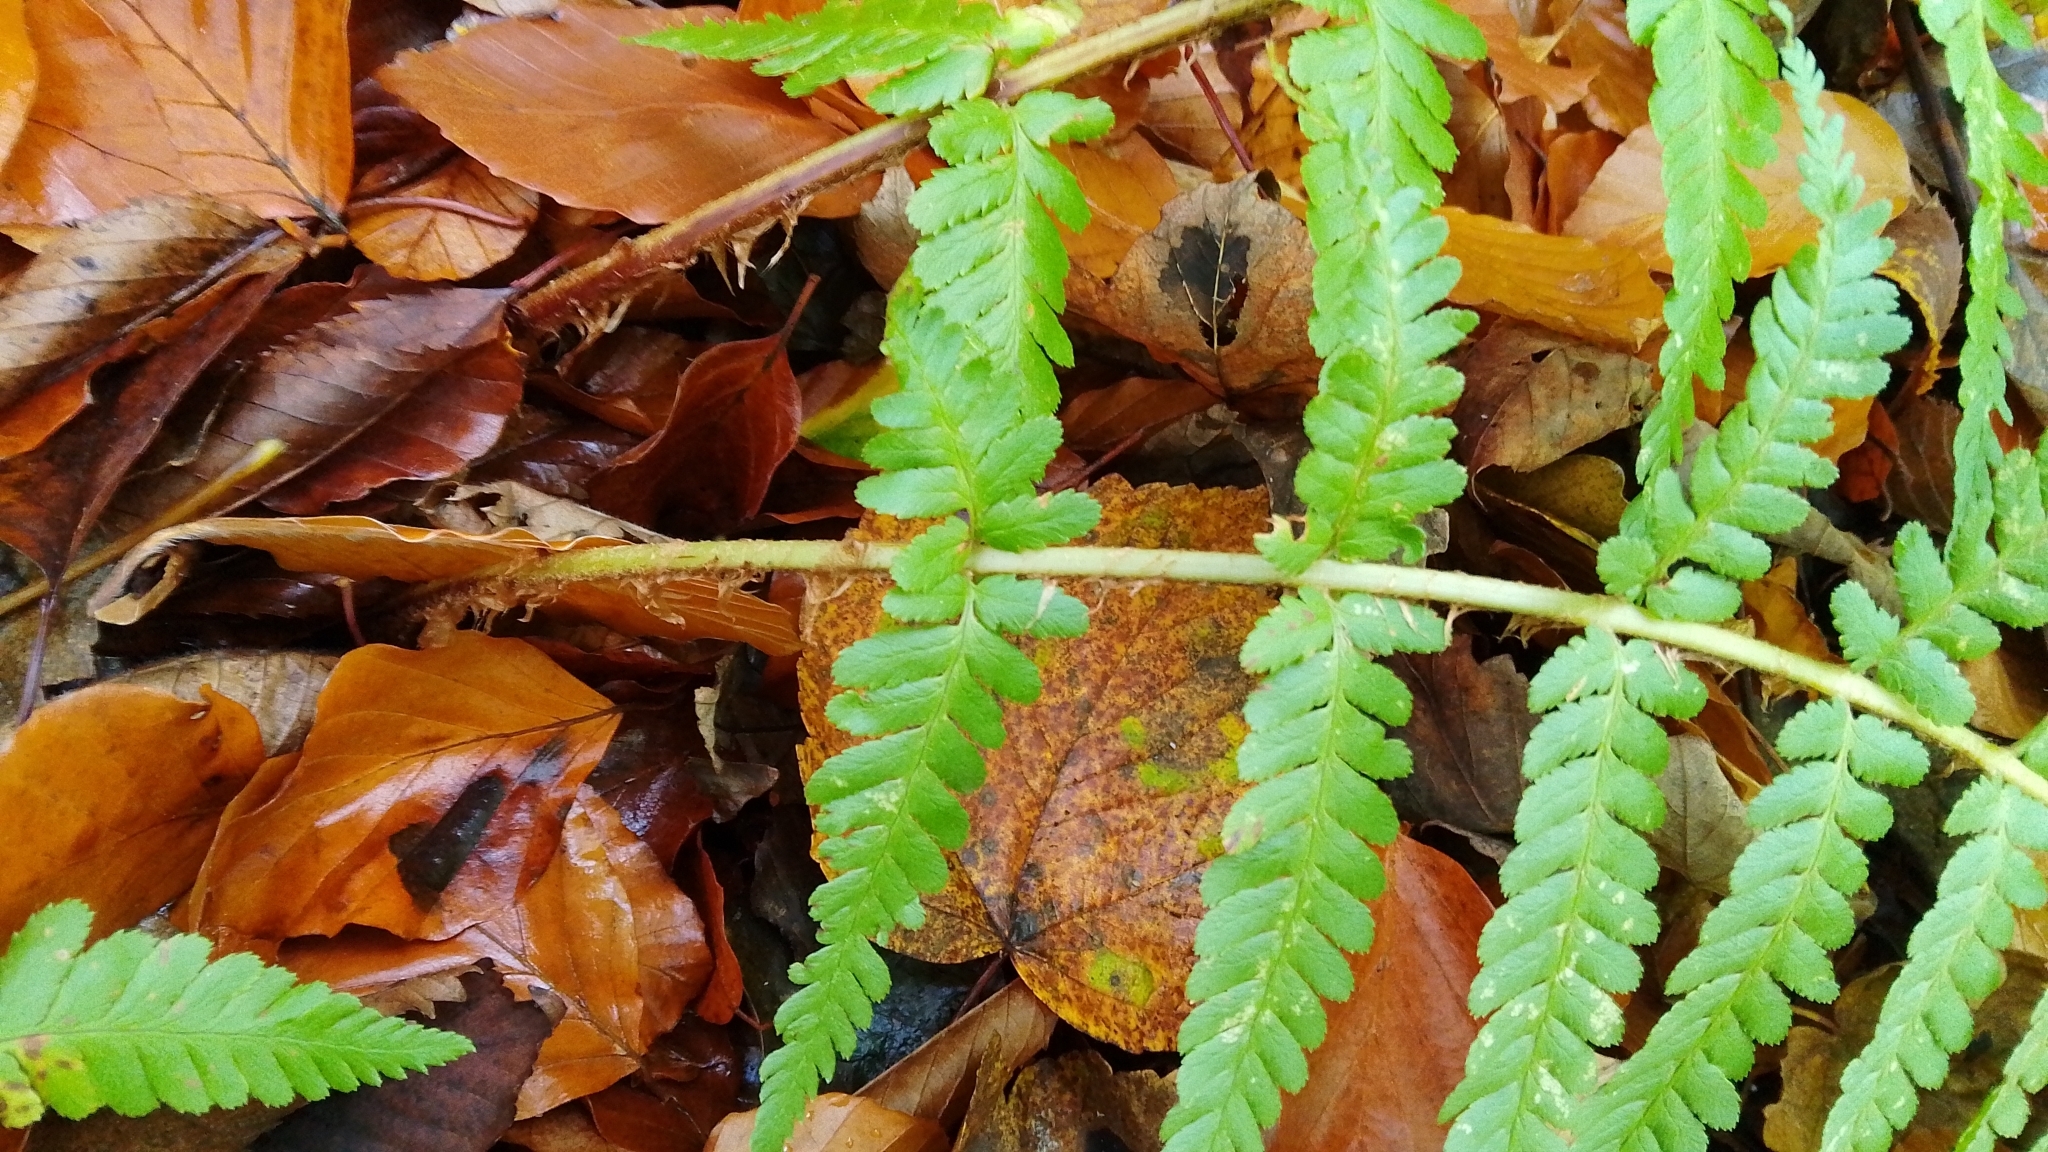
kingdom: Plantae
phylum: Tracheophyta
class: Polypodiopsida
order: Polypodiales
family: Dryopteridaceae
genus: Dryopteris
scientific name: Dryopteris filix-mas
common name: Male fern
